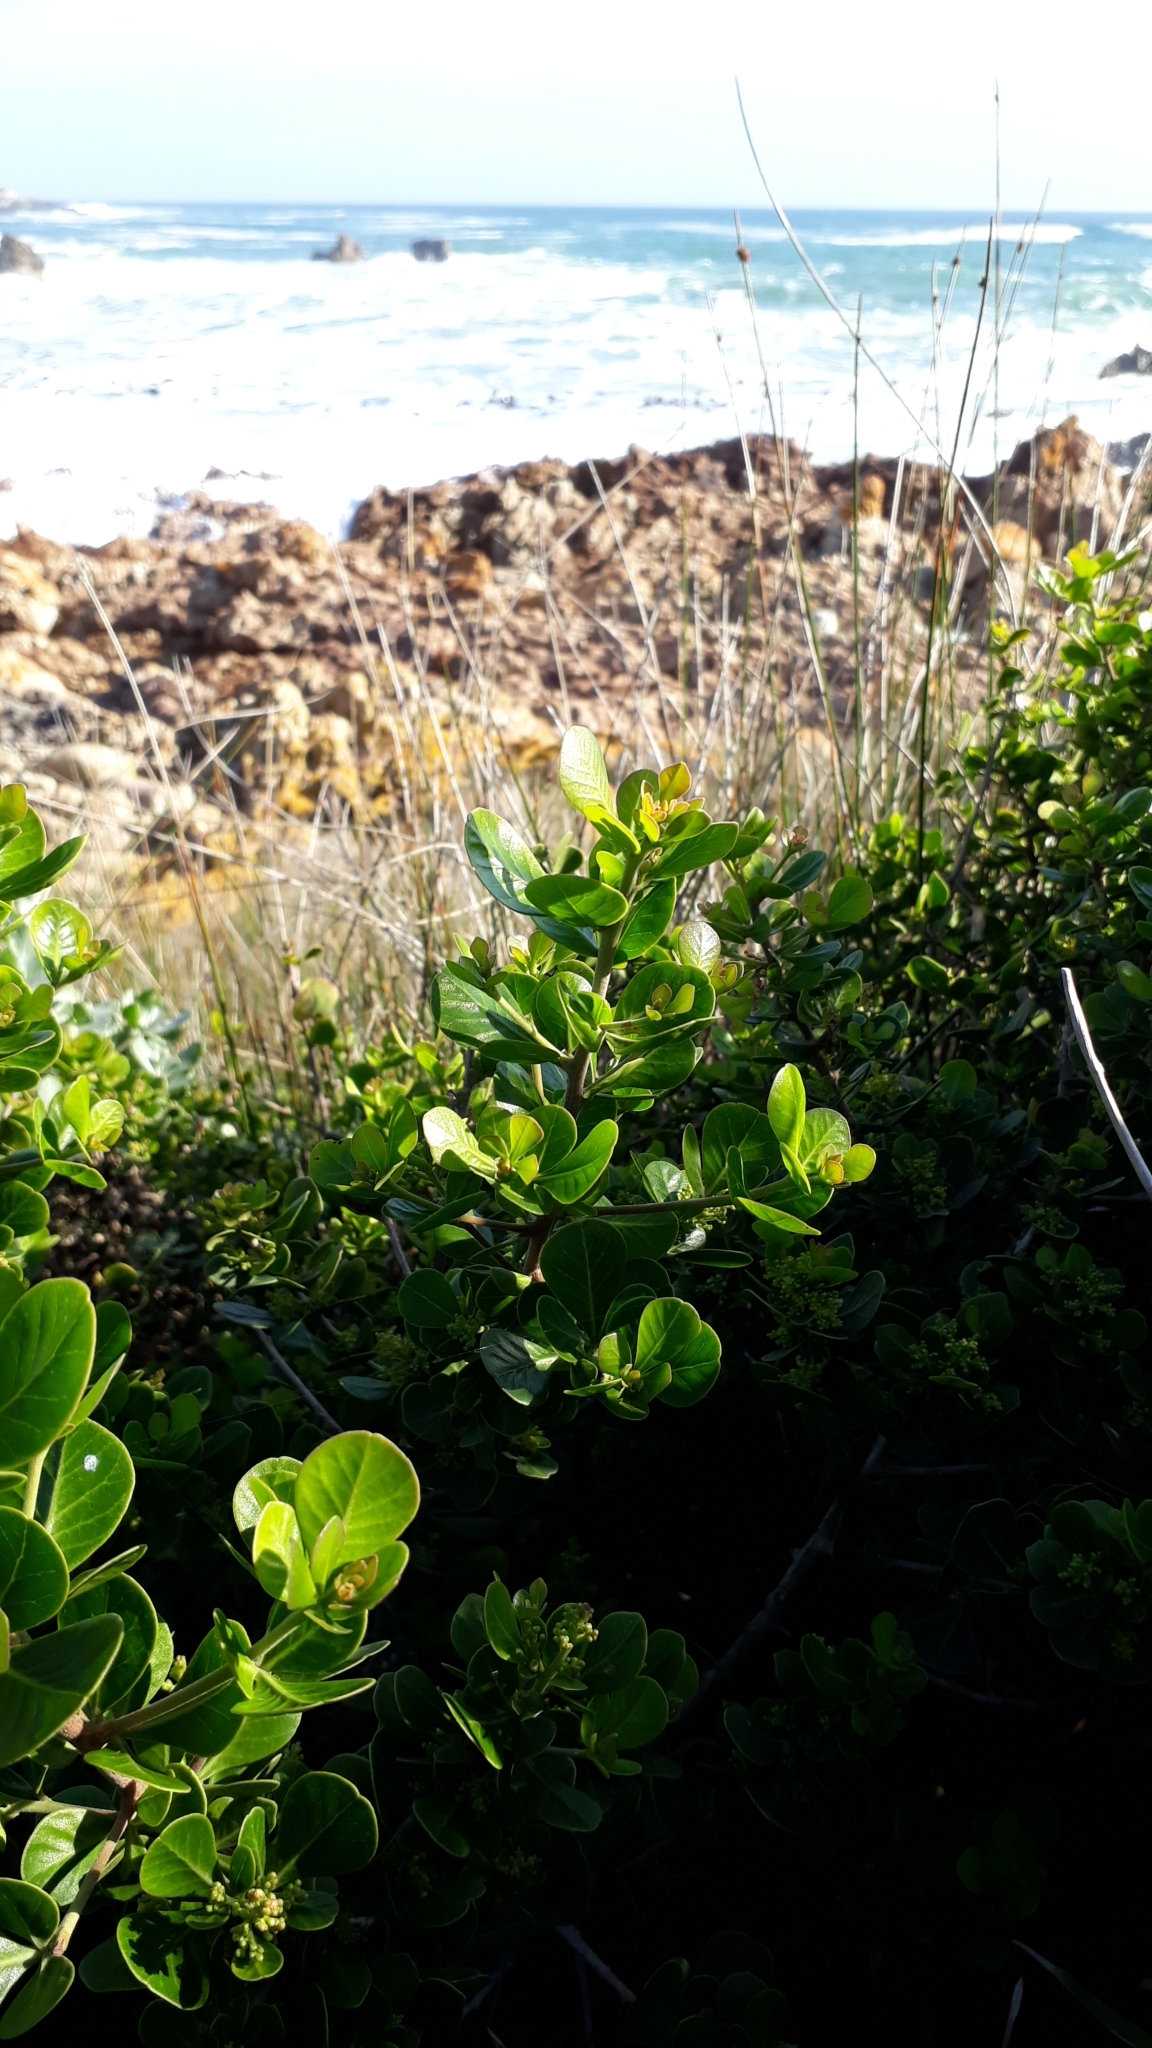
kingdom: Plantae
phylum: Tracheophyta
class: Magnoliopsida
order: Sapindales
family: Anacardiaceae
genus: Searsia
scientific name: Searsia lucida
